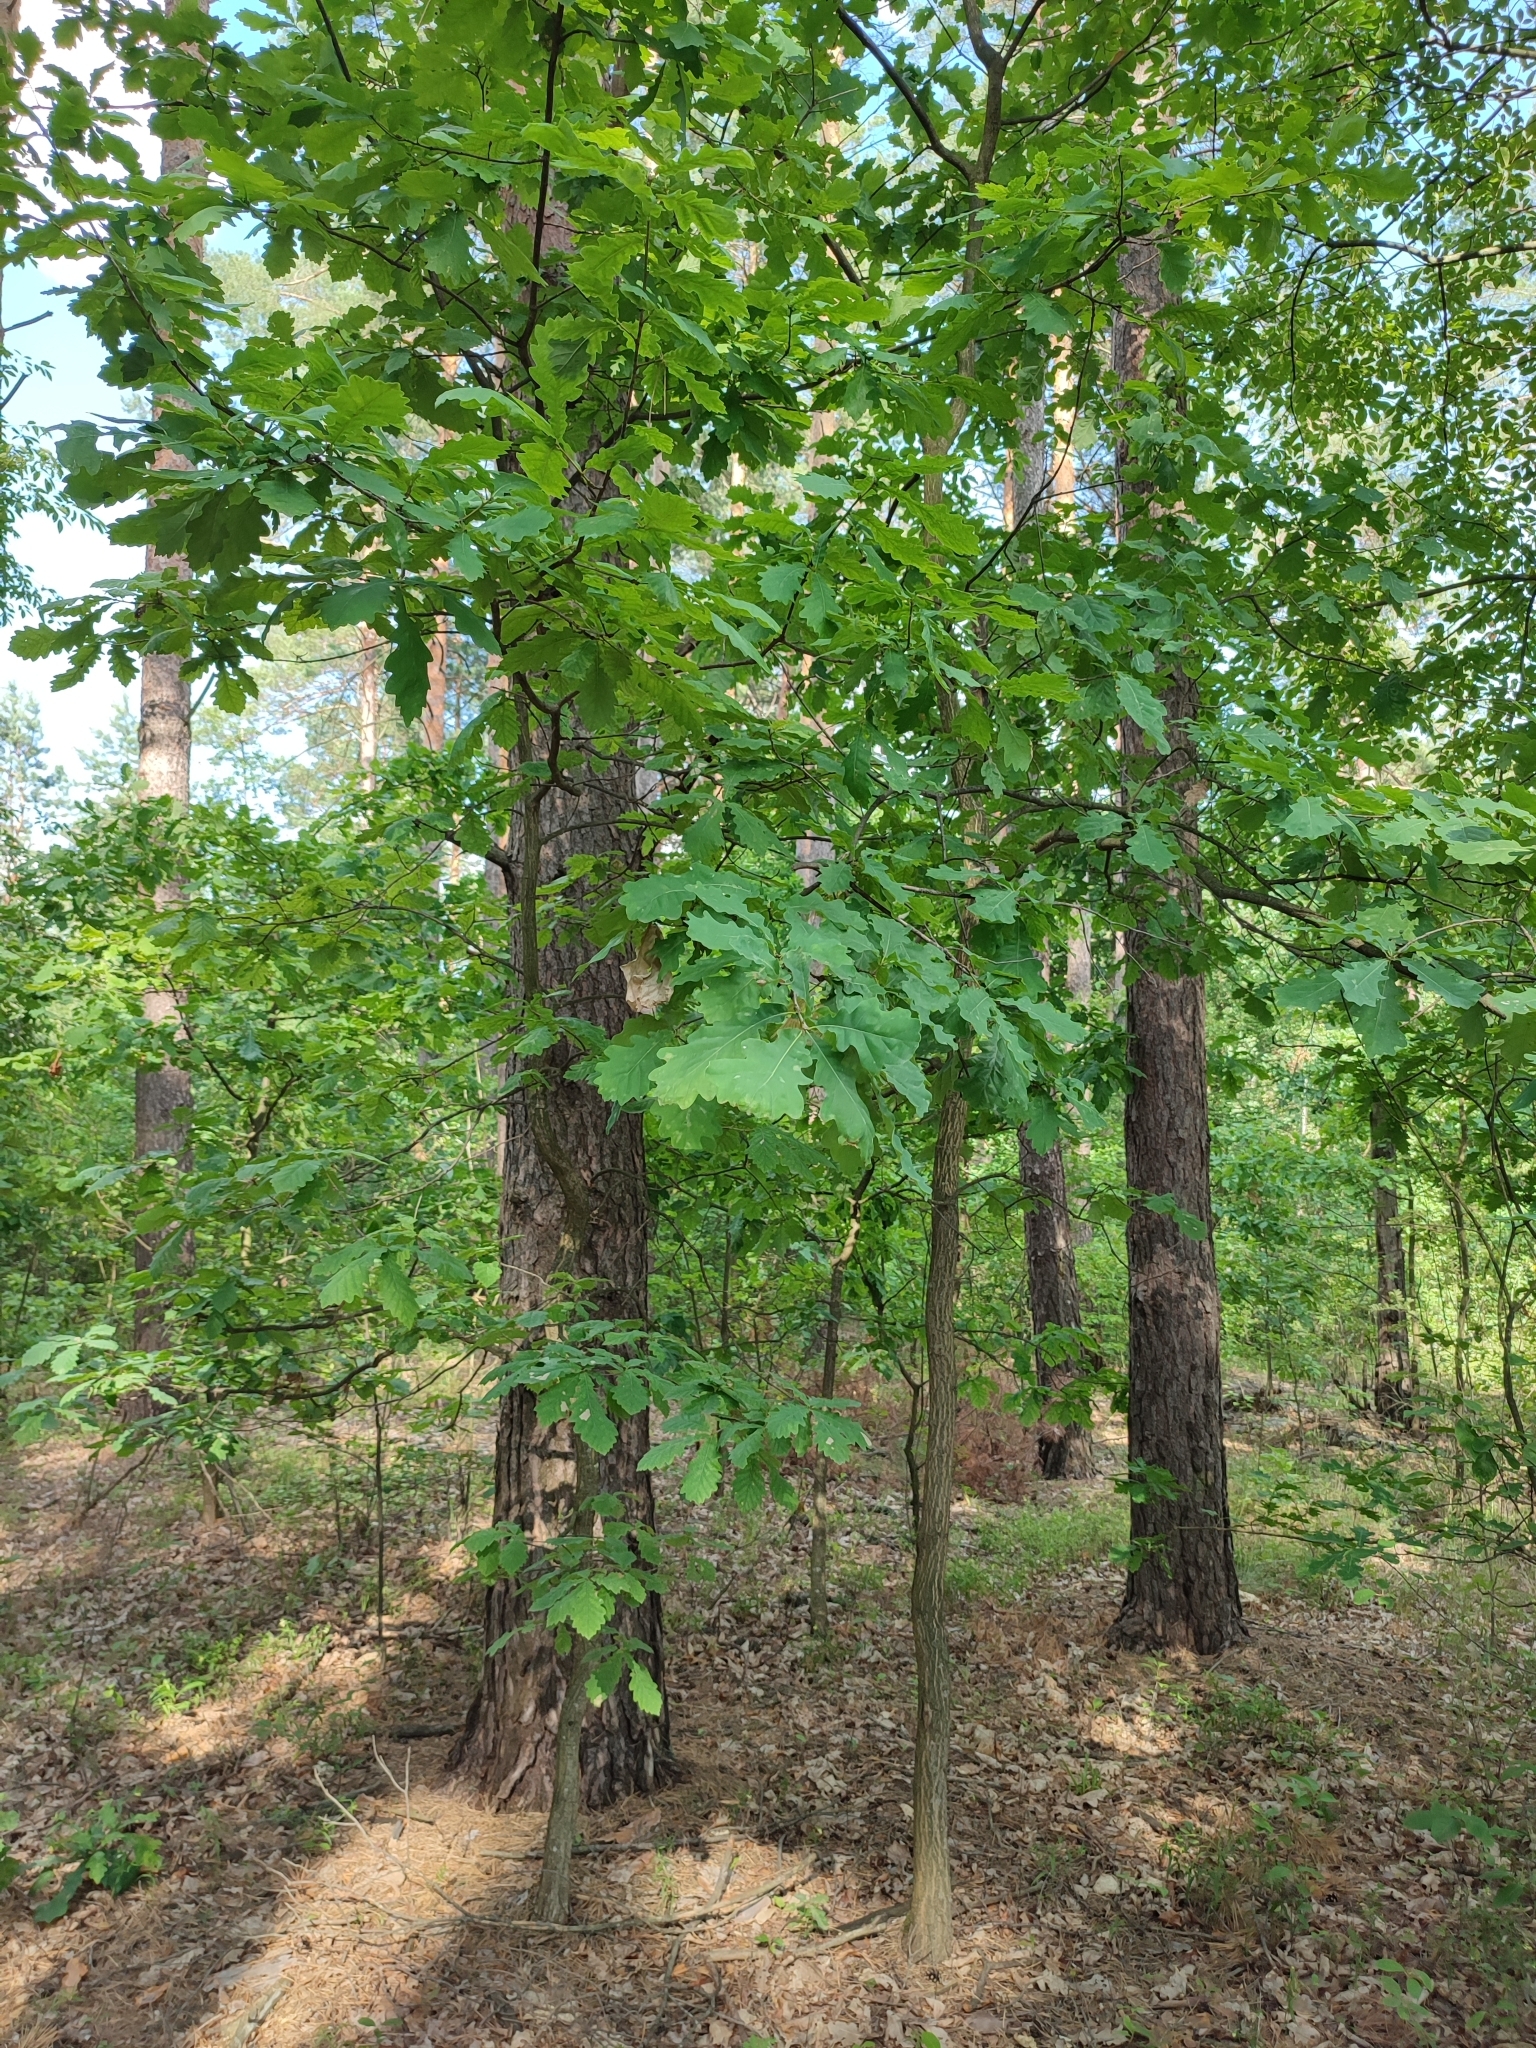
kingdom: Plantae
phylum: Tracheophyta
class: Magnoliopsida
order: Fagales
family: Fagaceae
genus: Quercus
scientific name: Quercus robur
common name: Pedunculate oak
